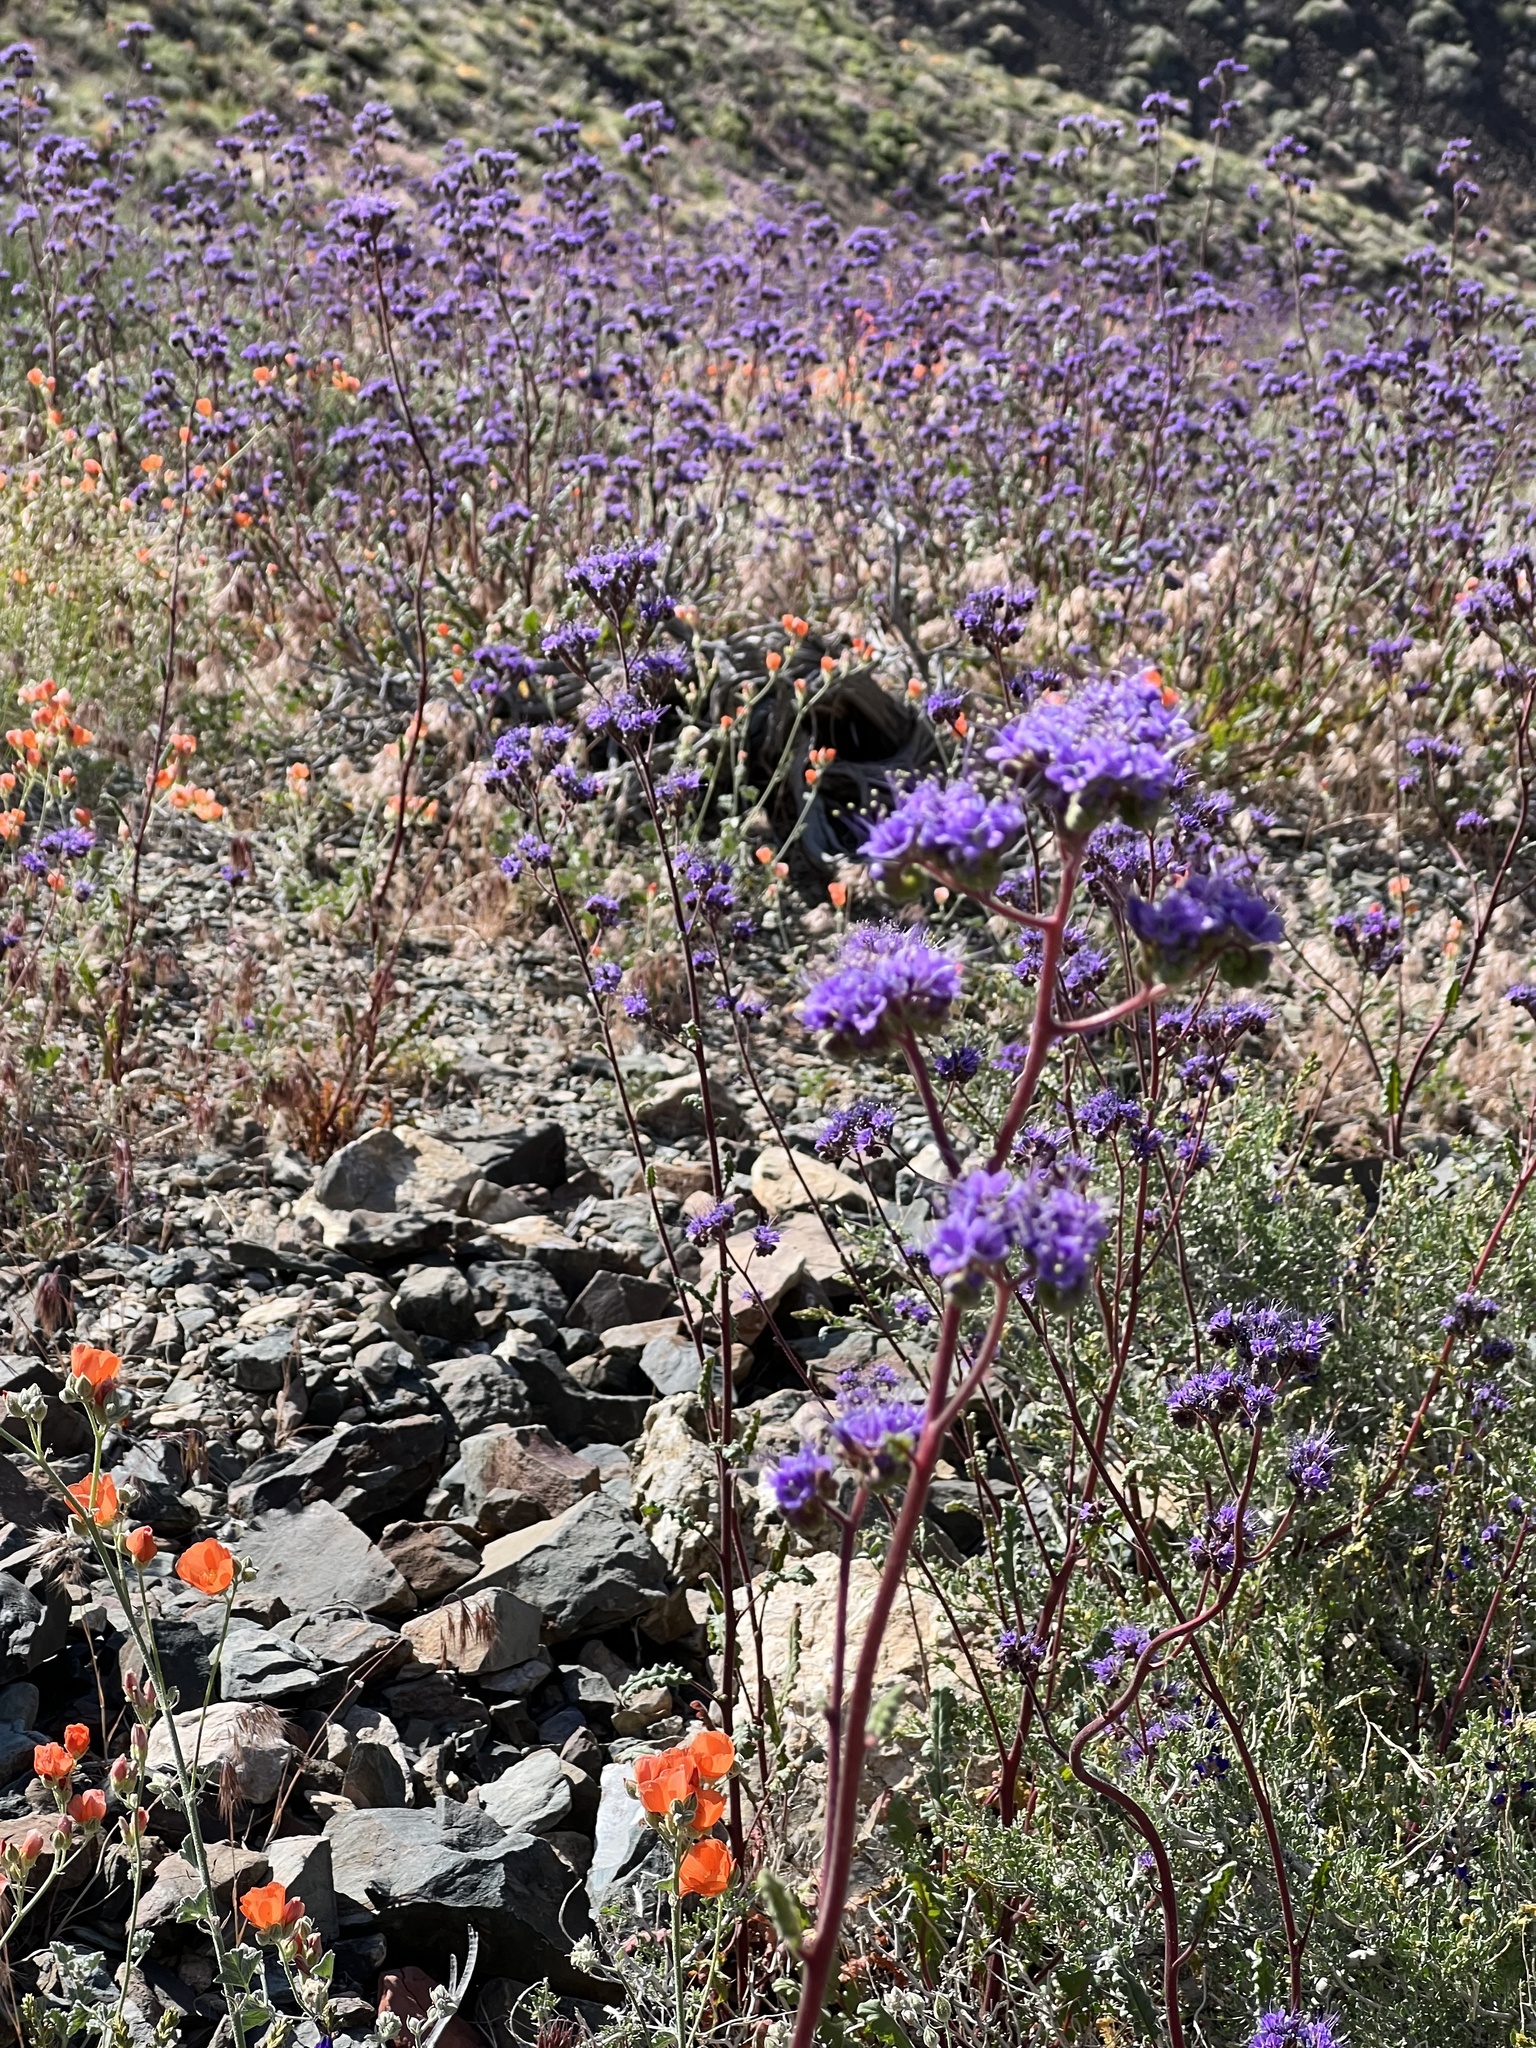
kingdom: Plantae
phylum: Tracheophyta
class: Magnoliopsida
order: Boraginales
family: Hydrophyllaceae
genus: Phacelia
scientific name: Phacelia crenulata
